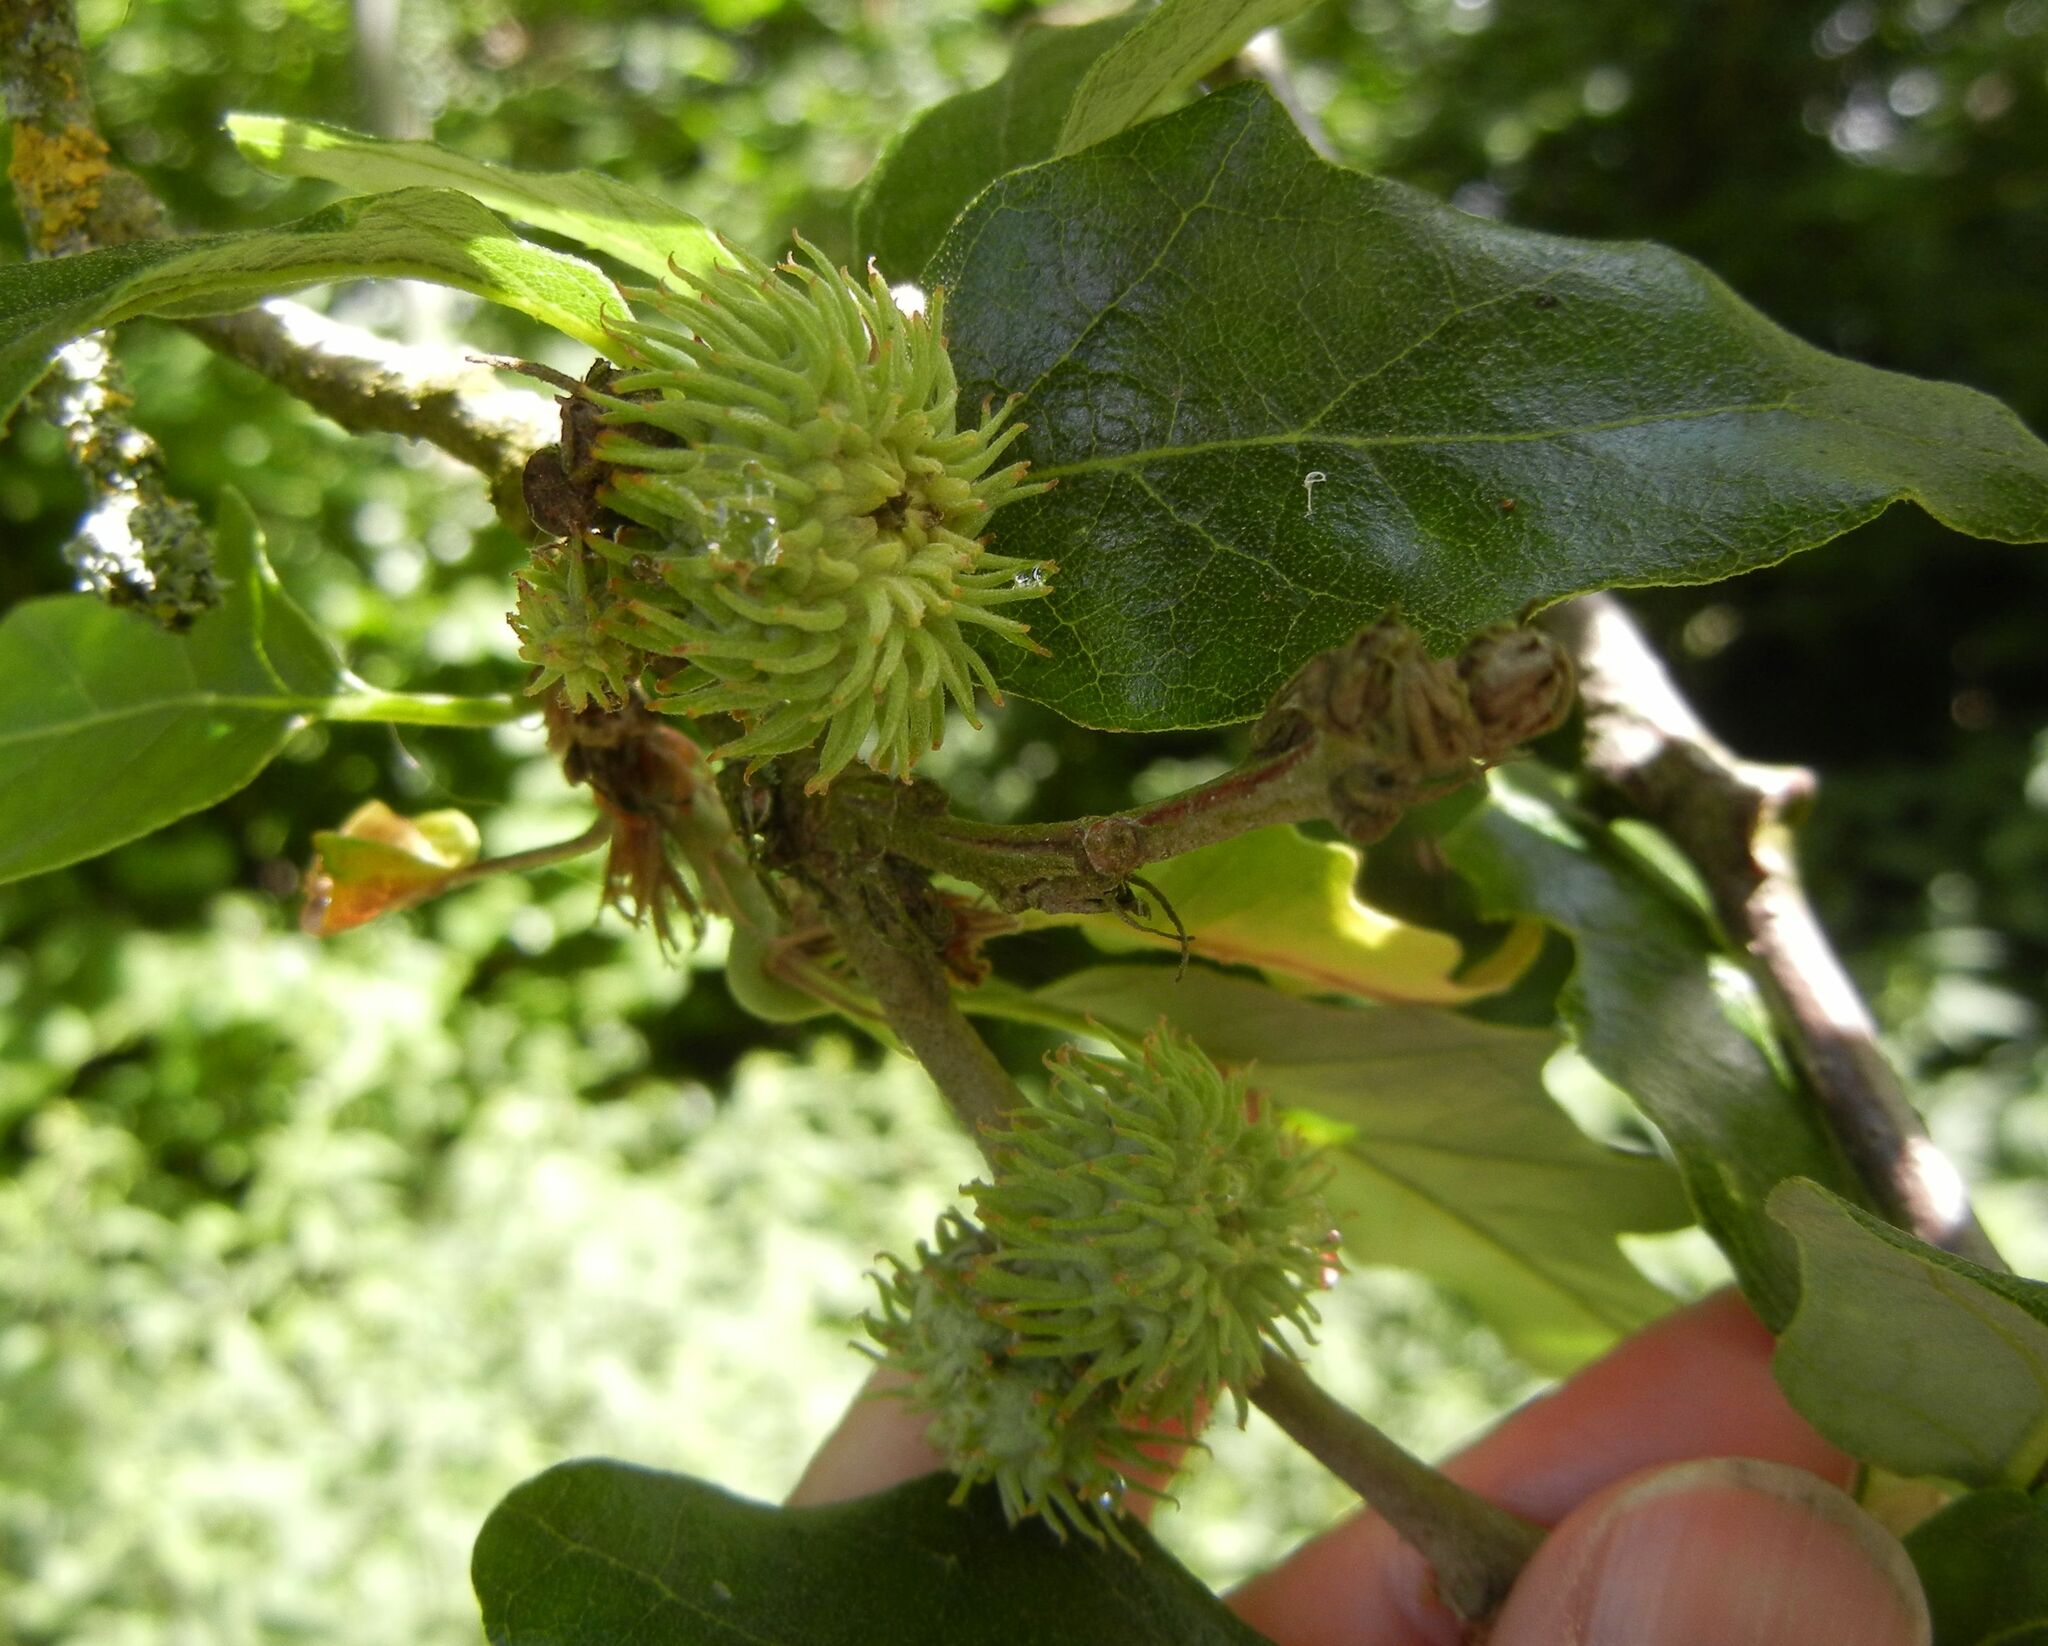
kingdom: Plantae
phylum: Tracheophyta
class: Magnoliopsida
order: Fagales
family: Fagaceae
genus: Quercus
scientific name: Quercus cerris
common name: Turkey oak
